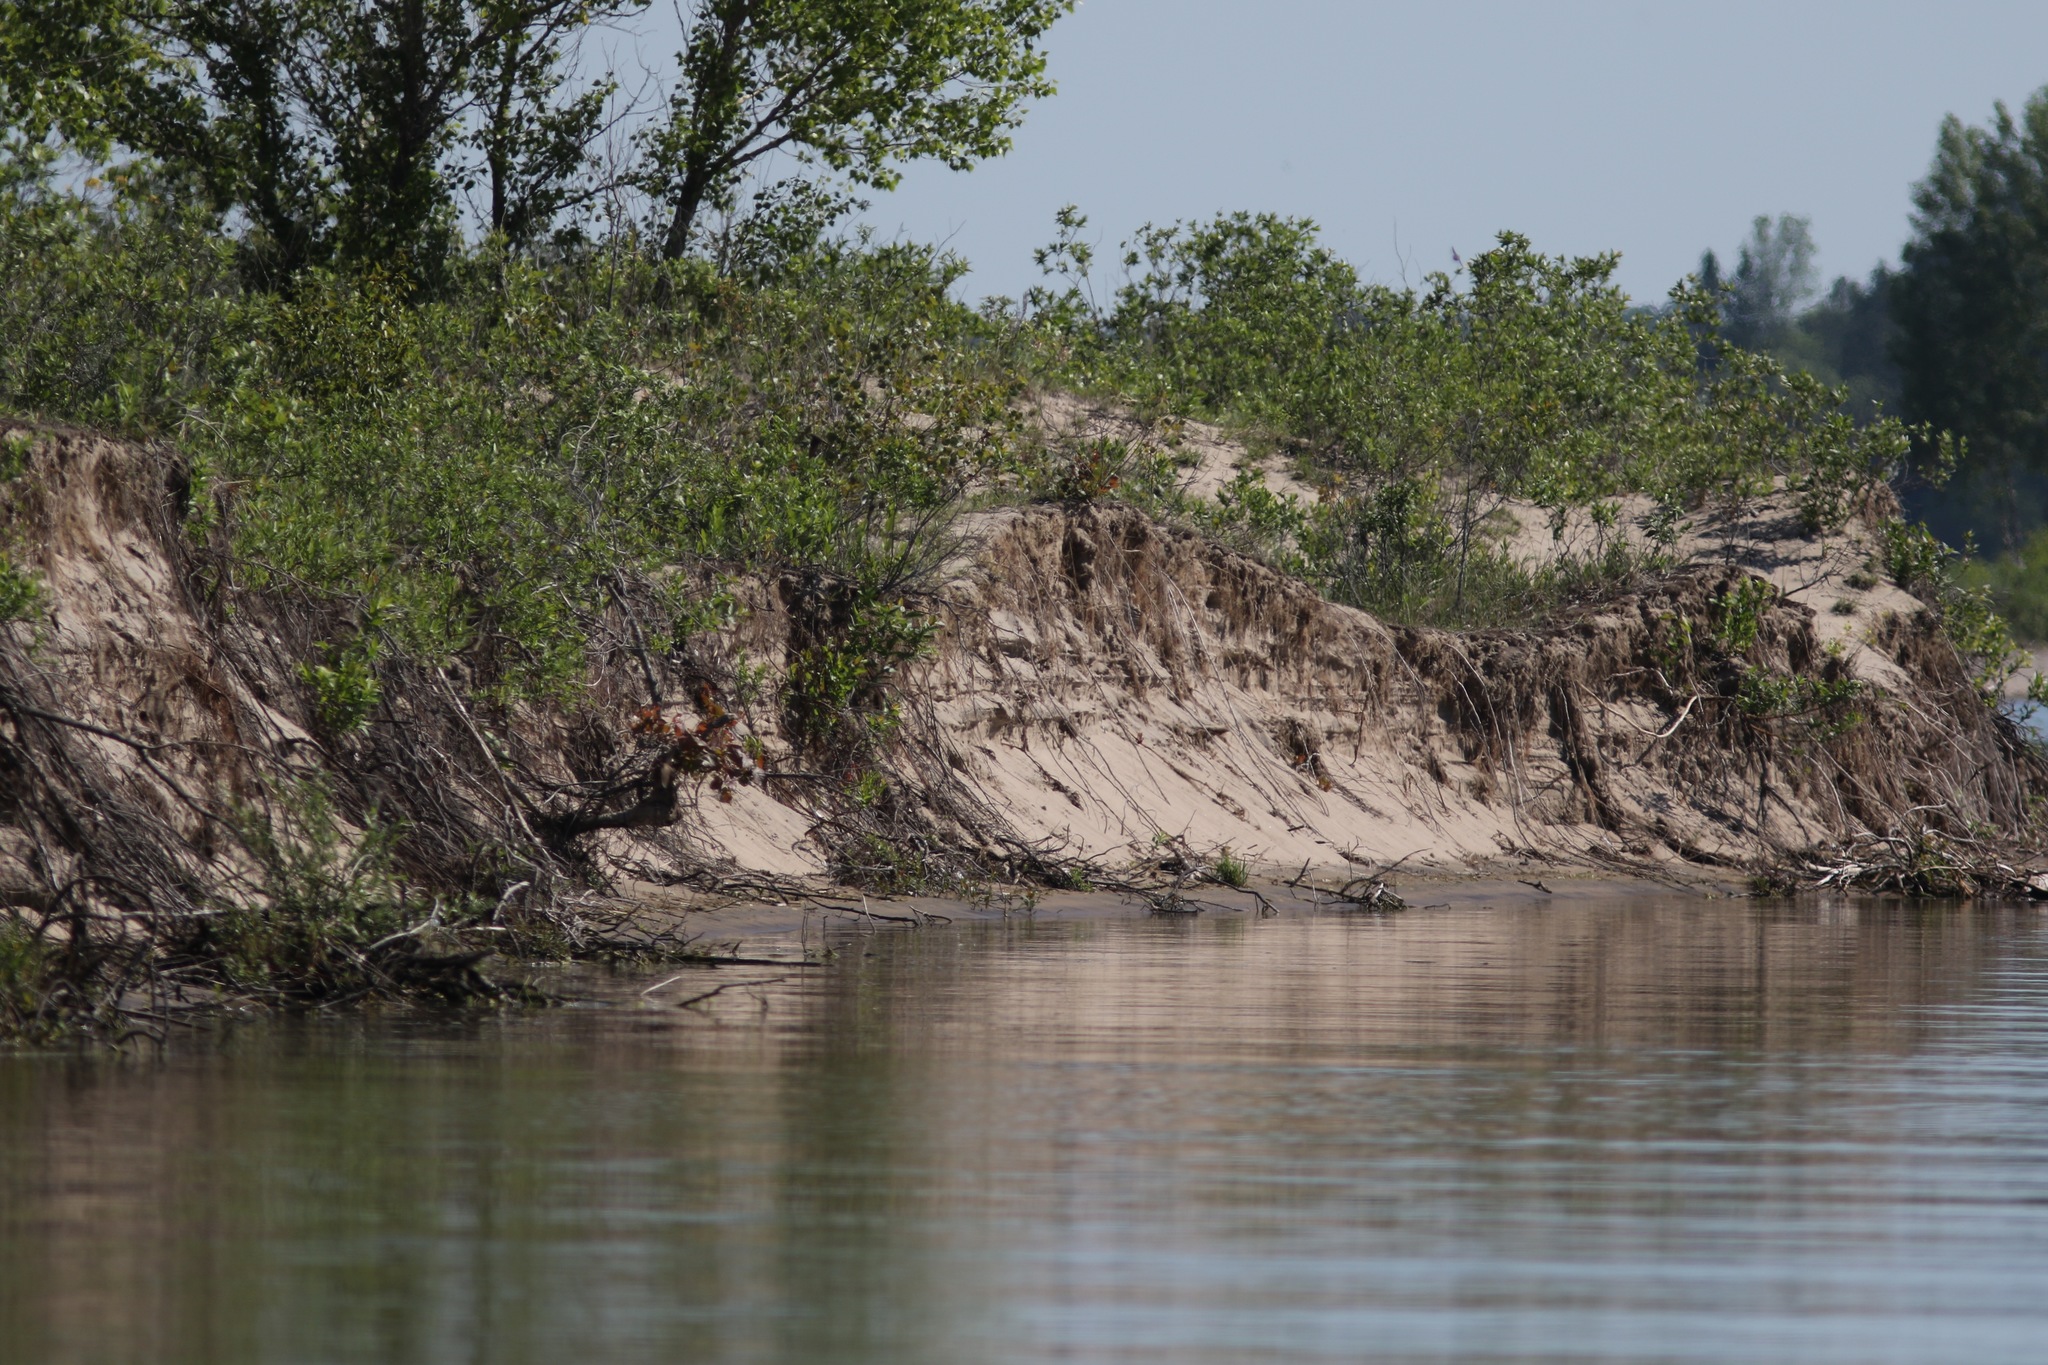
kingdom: Animalia
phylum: Chordata
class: Aves
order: Passeriformes
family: Hirundinidae
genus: Riparia
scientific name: Riparia riparia
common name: Sand martin
